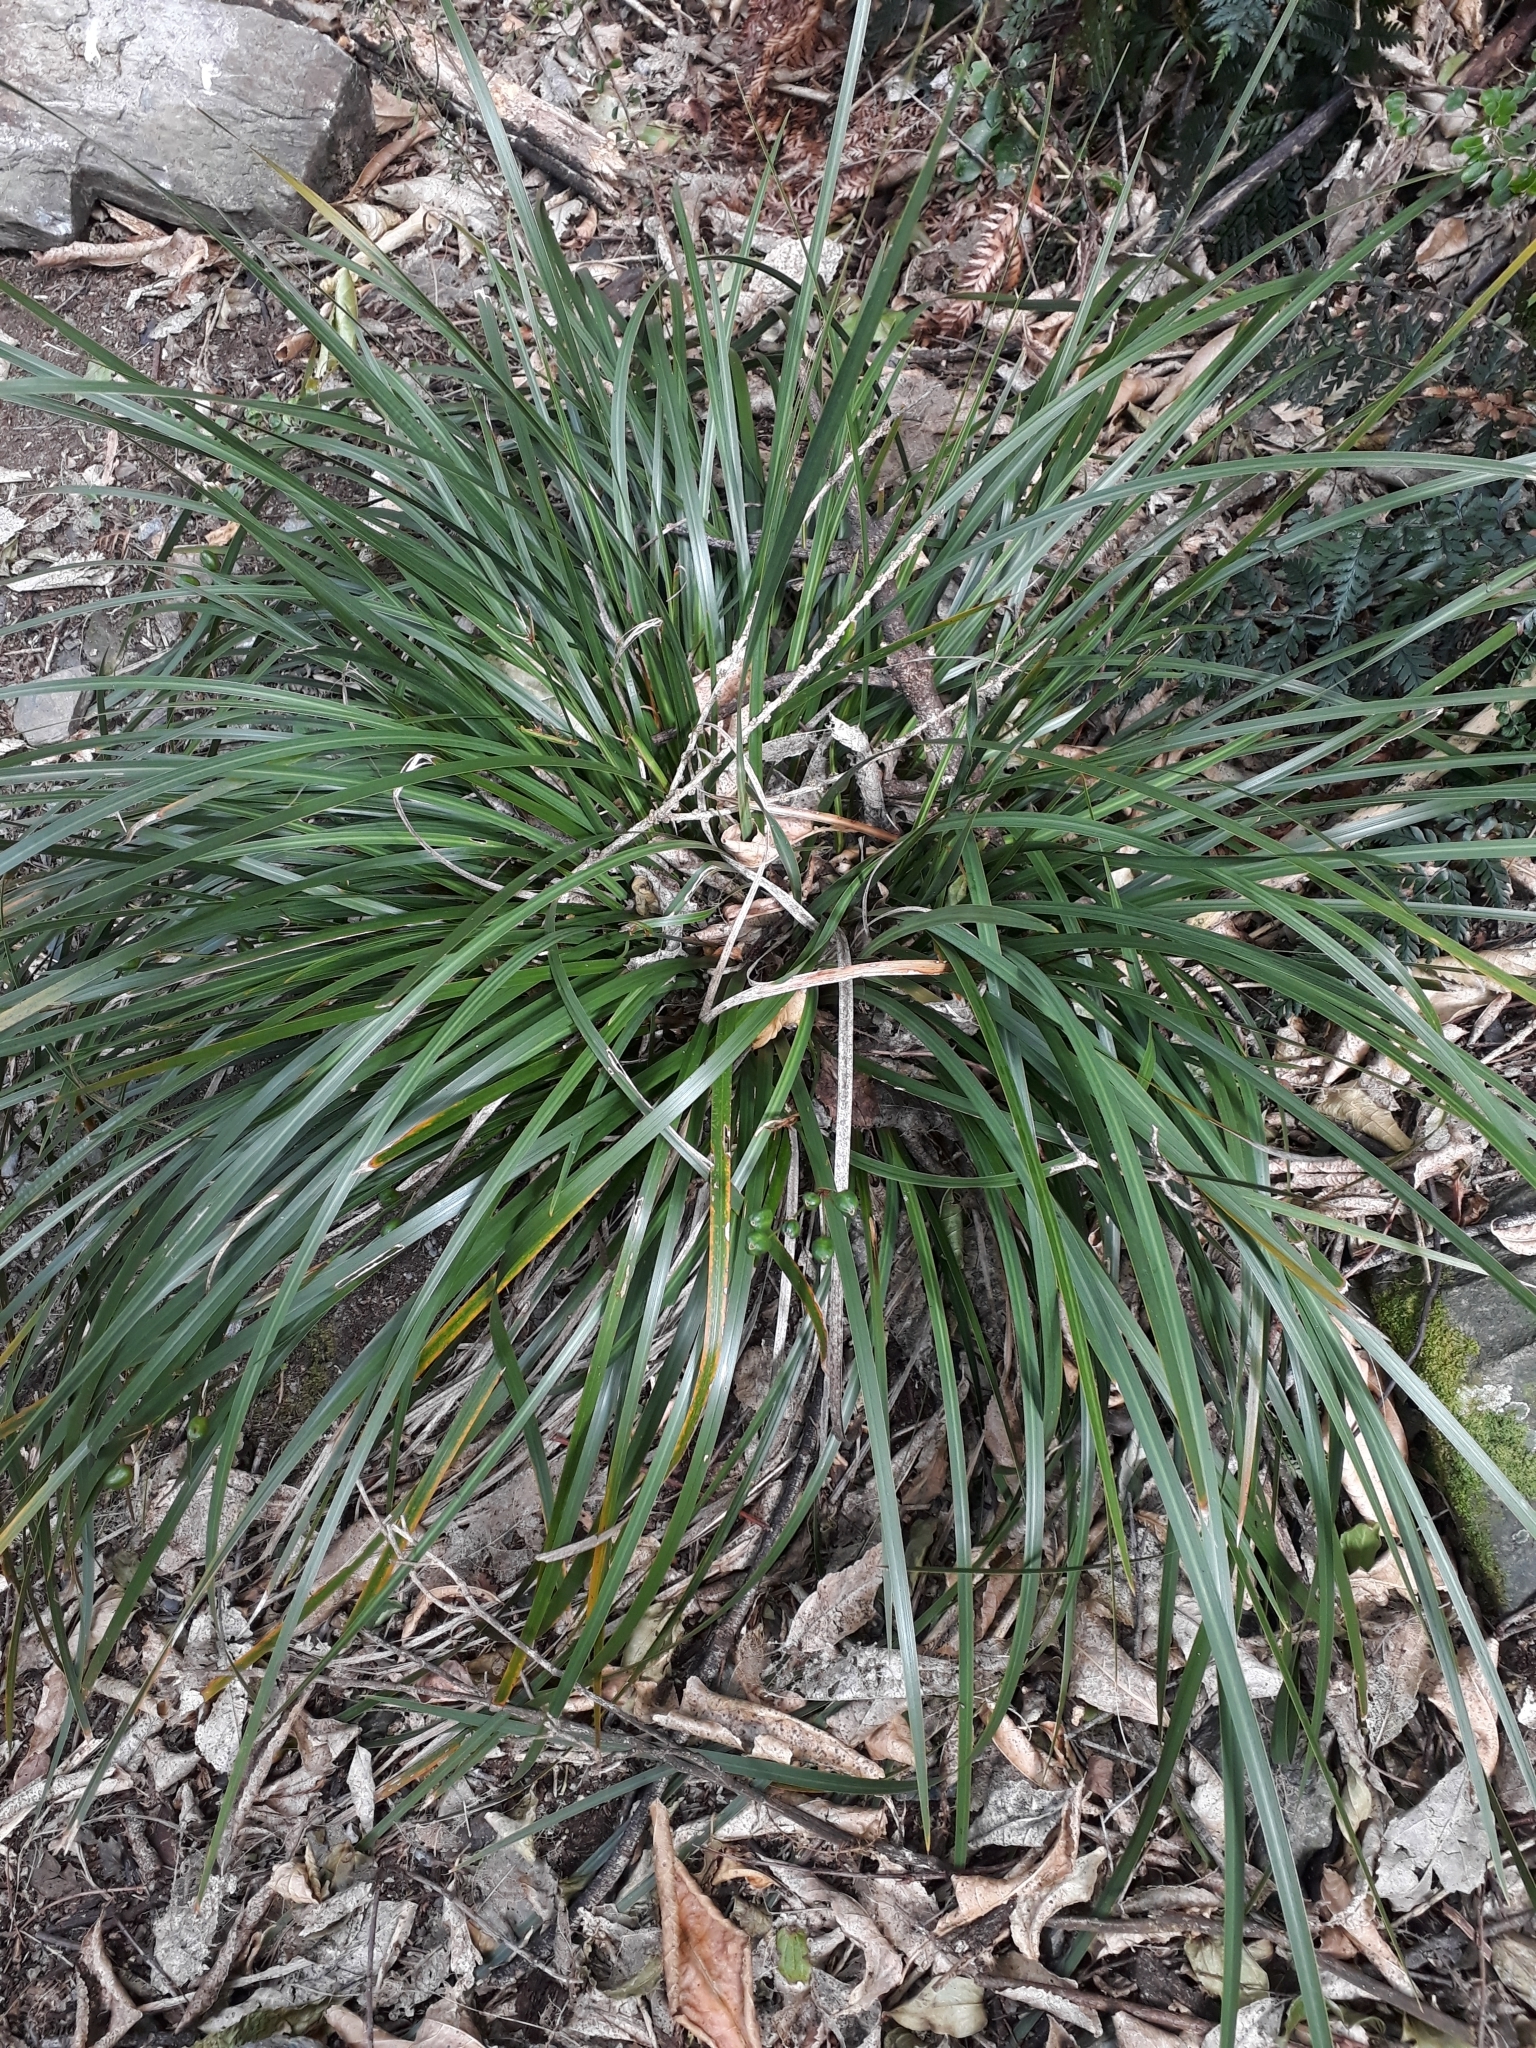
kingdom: Plantae
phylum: Tracheophyta
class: Liliopsida
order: Asparagales
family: Iridaceae
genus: Libertia
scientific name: Libertia ixioides
